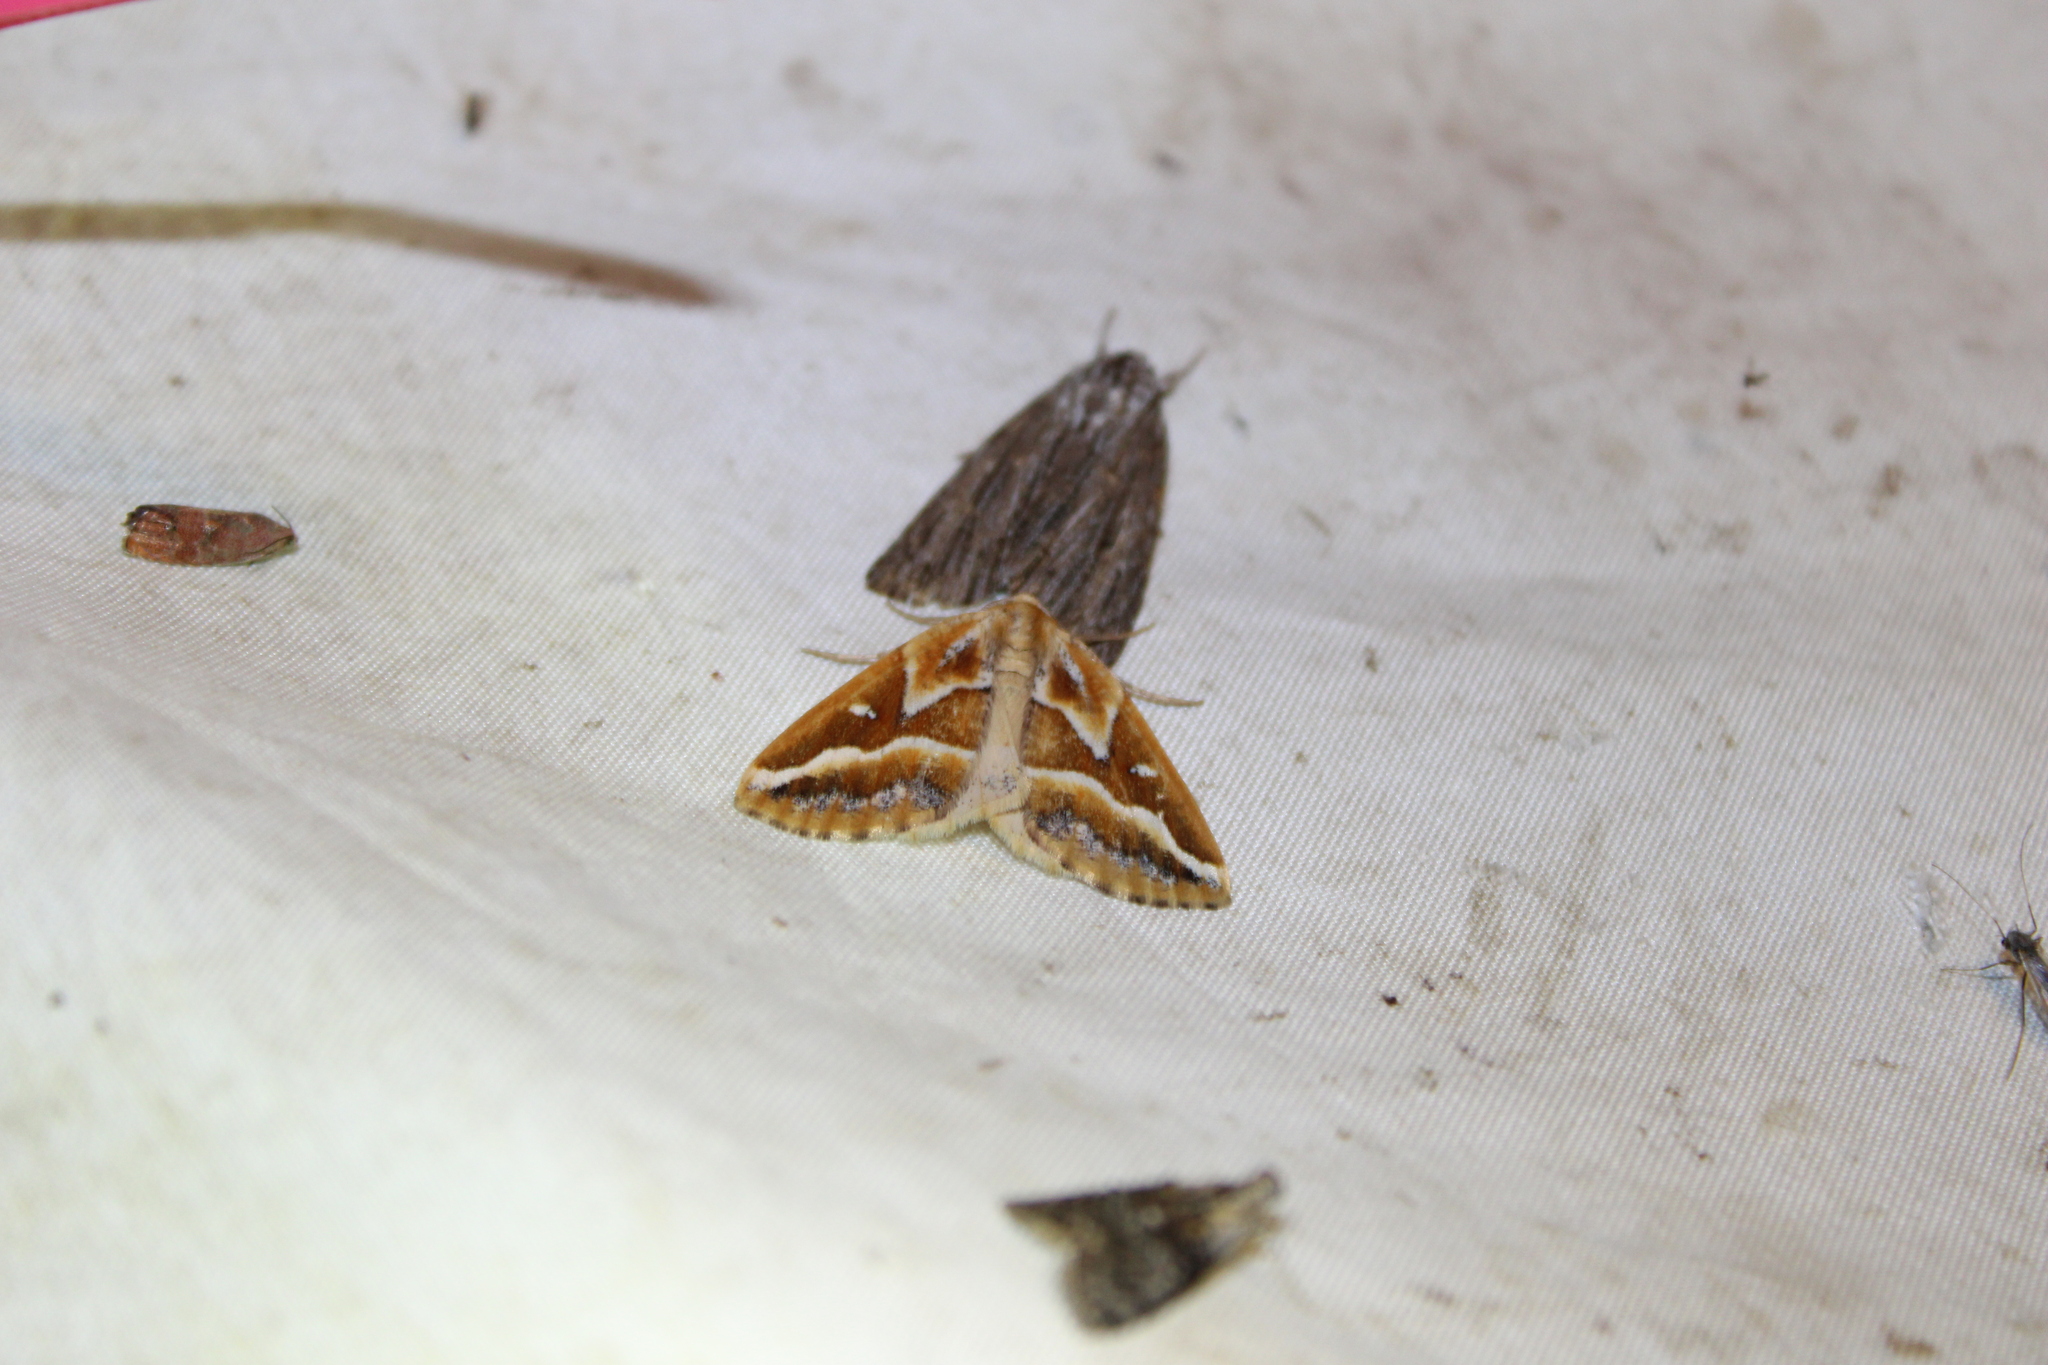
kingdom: Animalia
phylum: Arthropoda
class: Insecta
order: Lepidoptera
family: Geometridae
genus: Caripeta
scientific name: Caripeta angustiorata
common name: Brown pine looper
